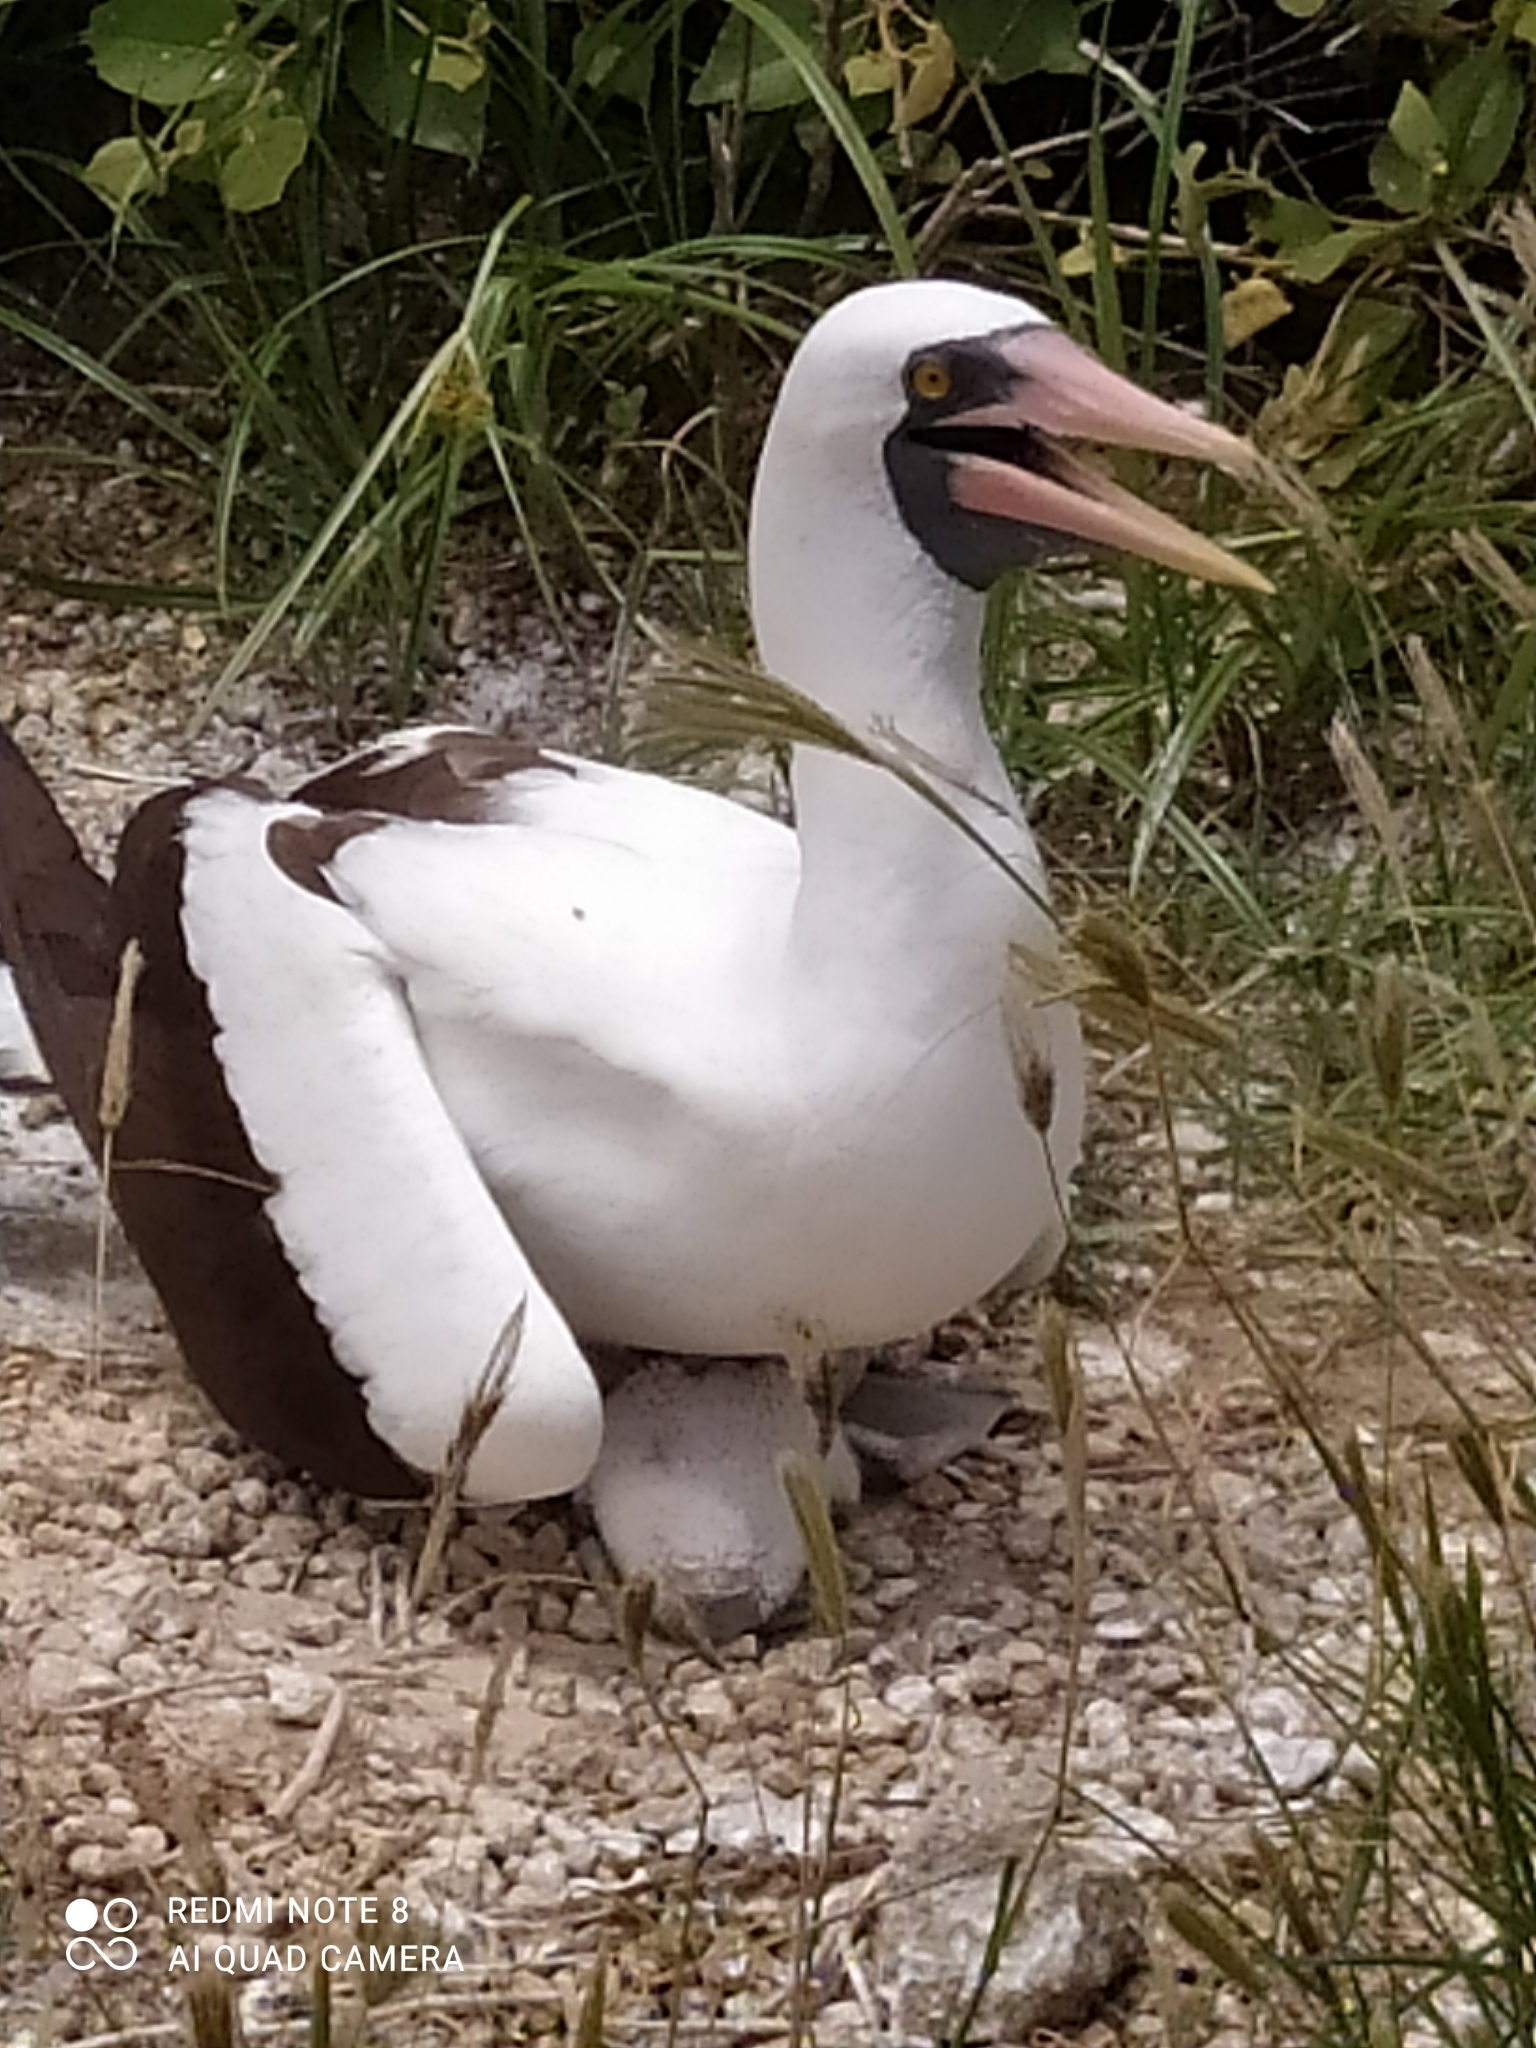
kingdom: Animalia
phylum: Chordata
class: Aves
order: Suliformes
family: Sulidae
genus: Sula
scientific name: Sula granti
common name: Nazca booby
